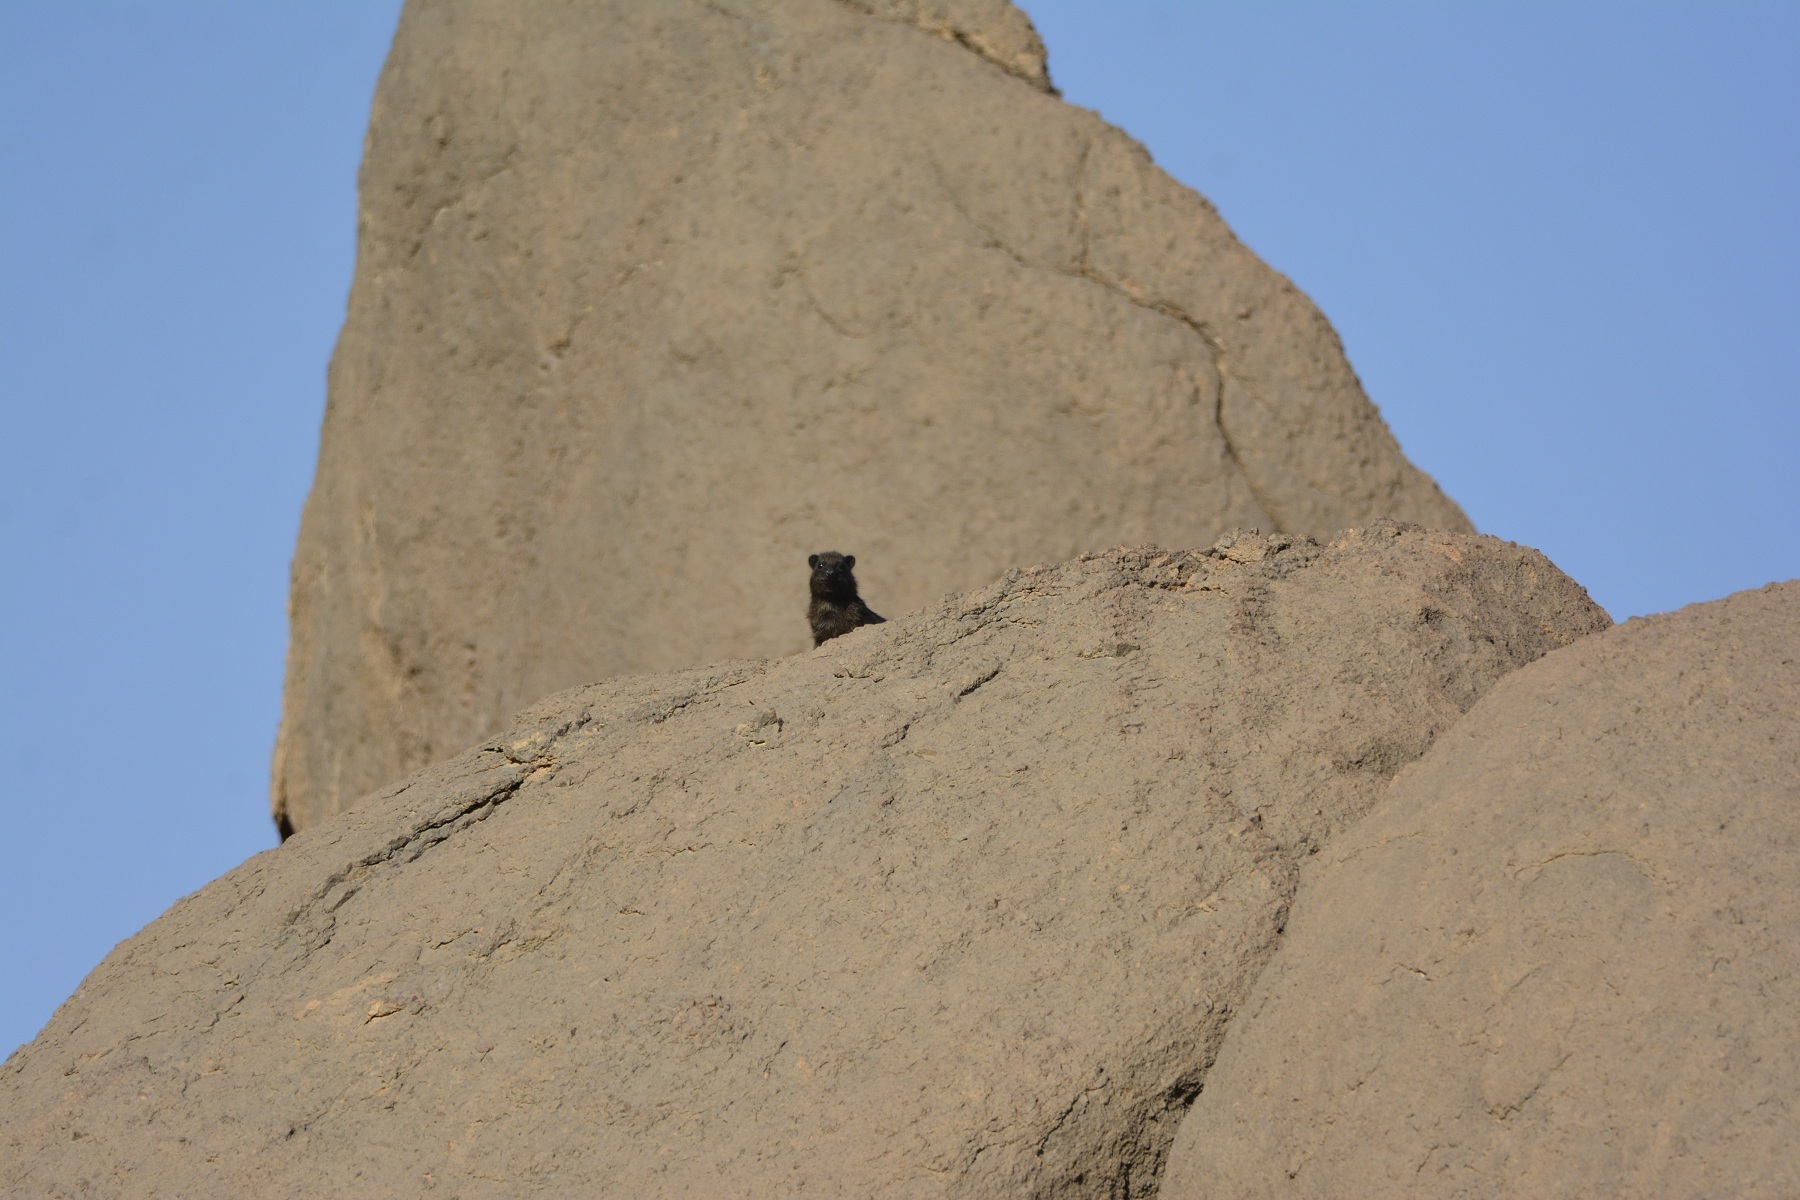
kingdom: Animalia
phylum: Chordata
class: Mammalia
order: Hyracoidea
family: Procaviidae
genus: Procavia
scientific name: Procavia capensis
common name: Rock hyrax
